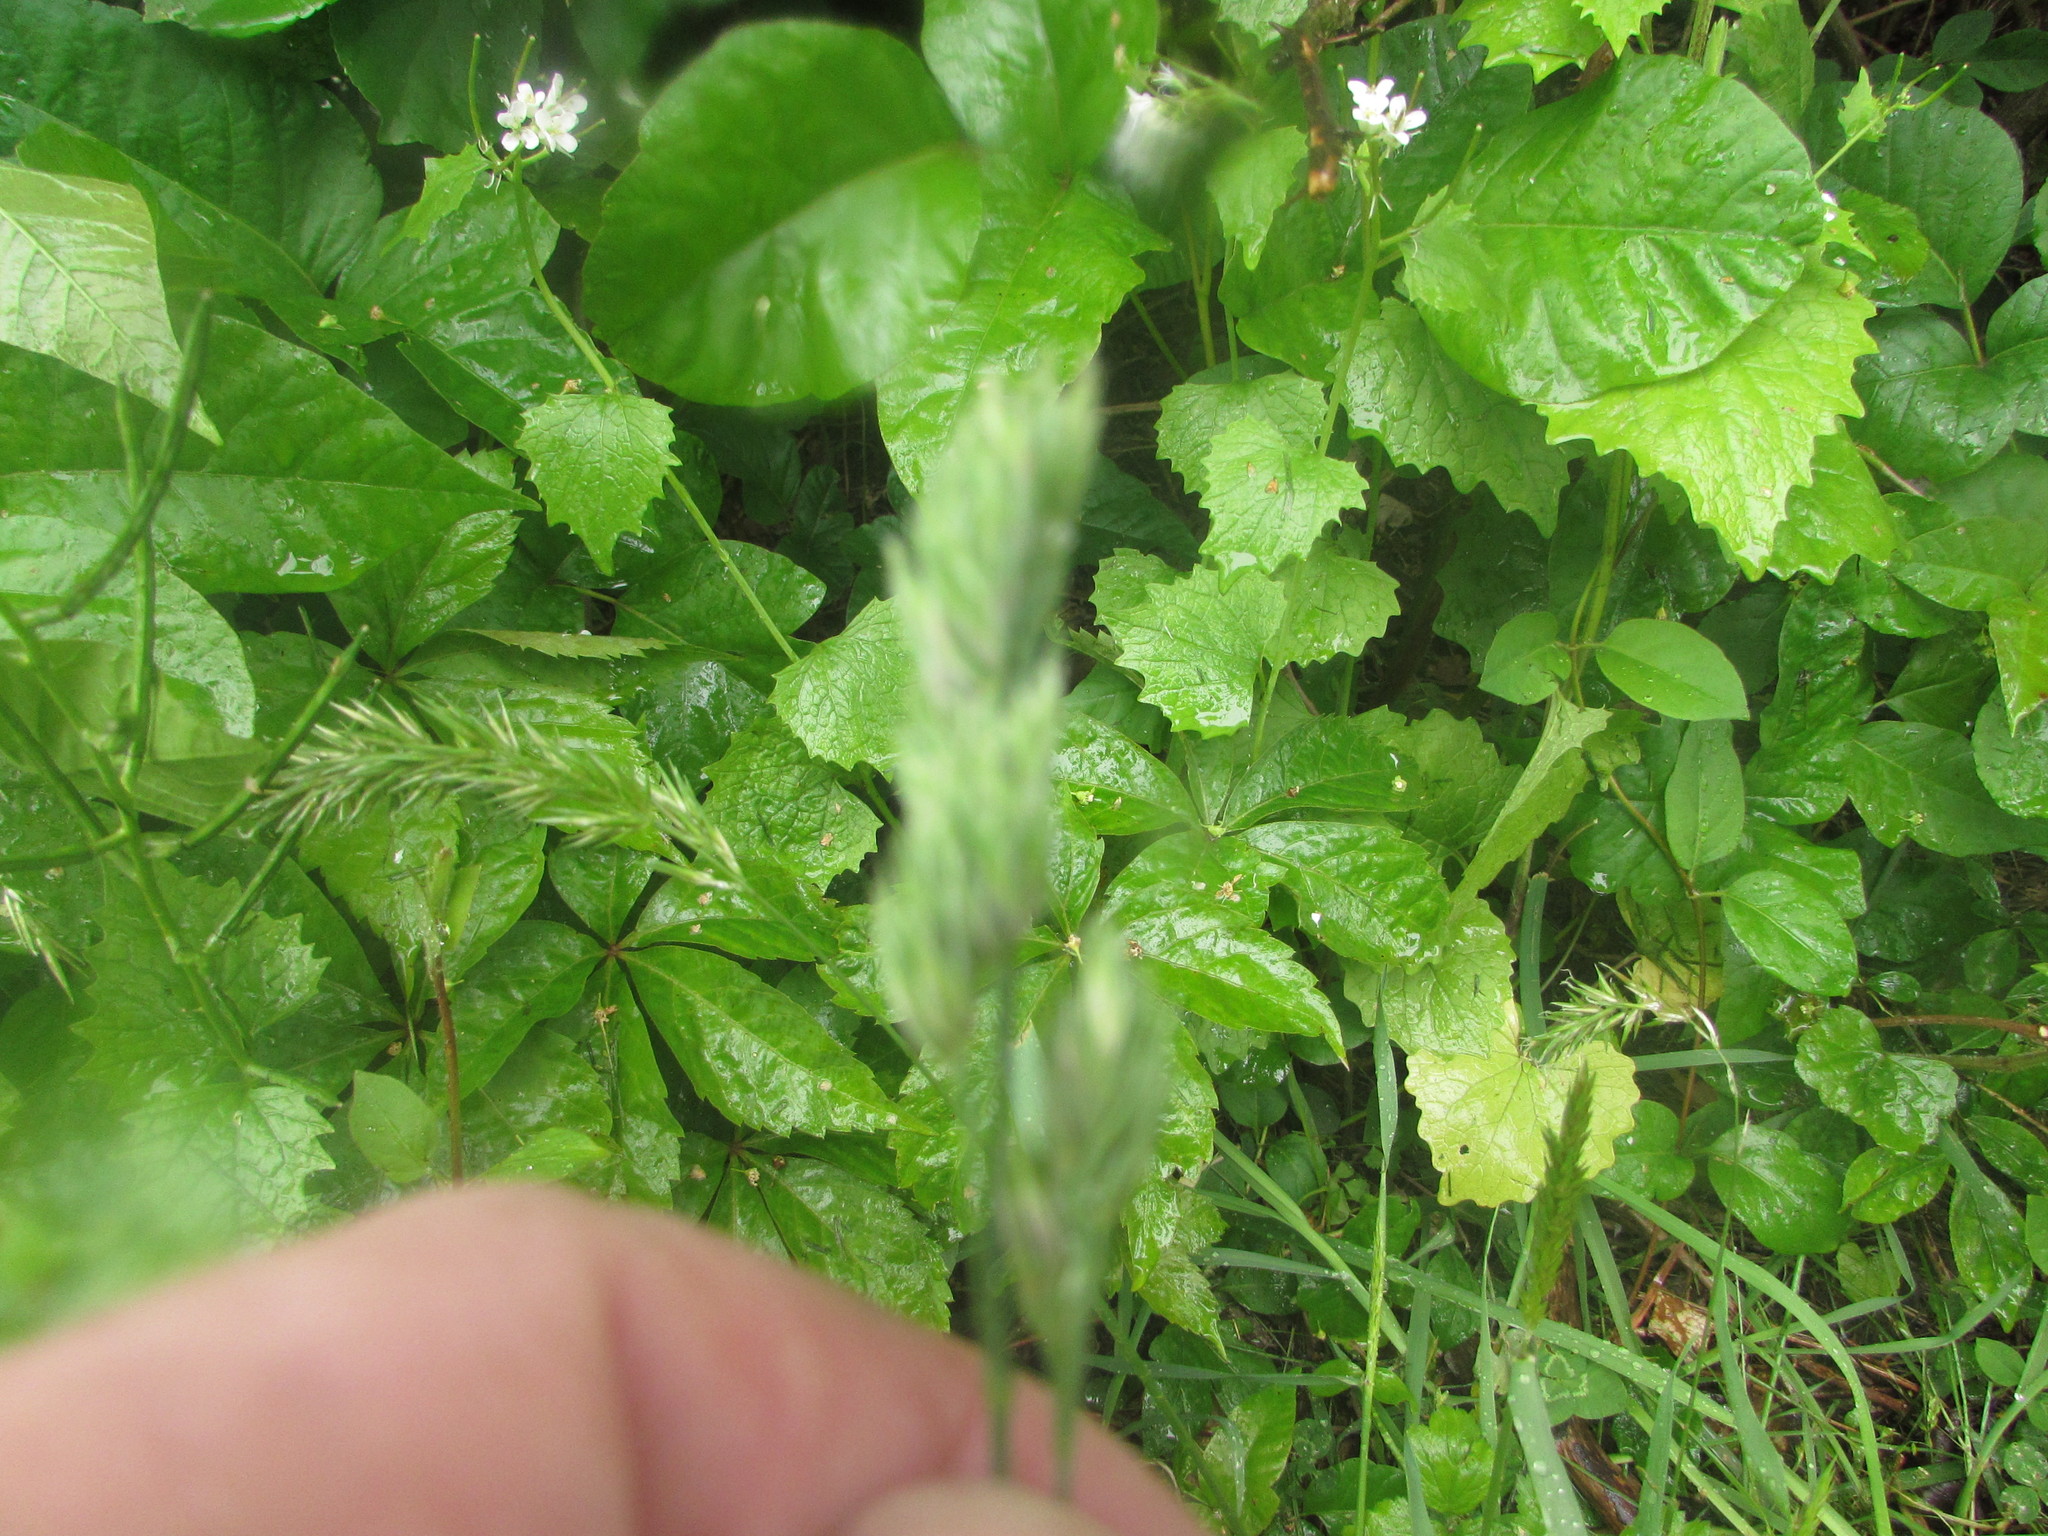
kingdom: Plantae
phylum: Tracheophyta
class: Liliopsida
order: Poales
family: Poaceae
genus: Dactylis
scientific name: Dactylis glomerata
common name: Orchardgrass
